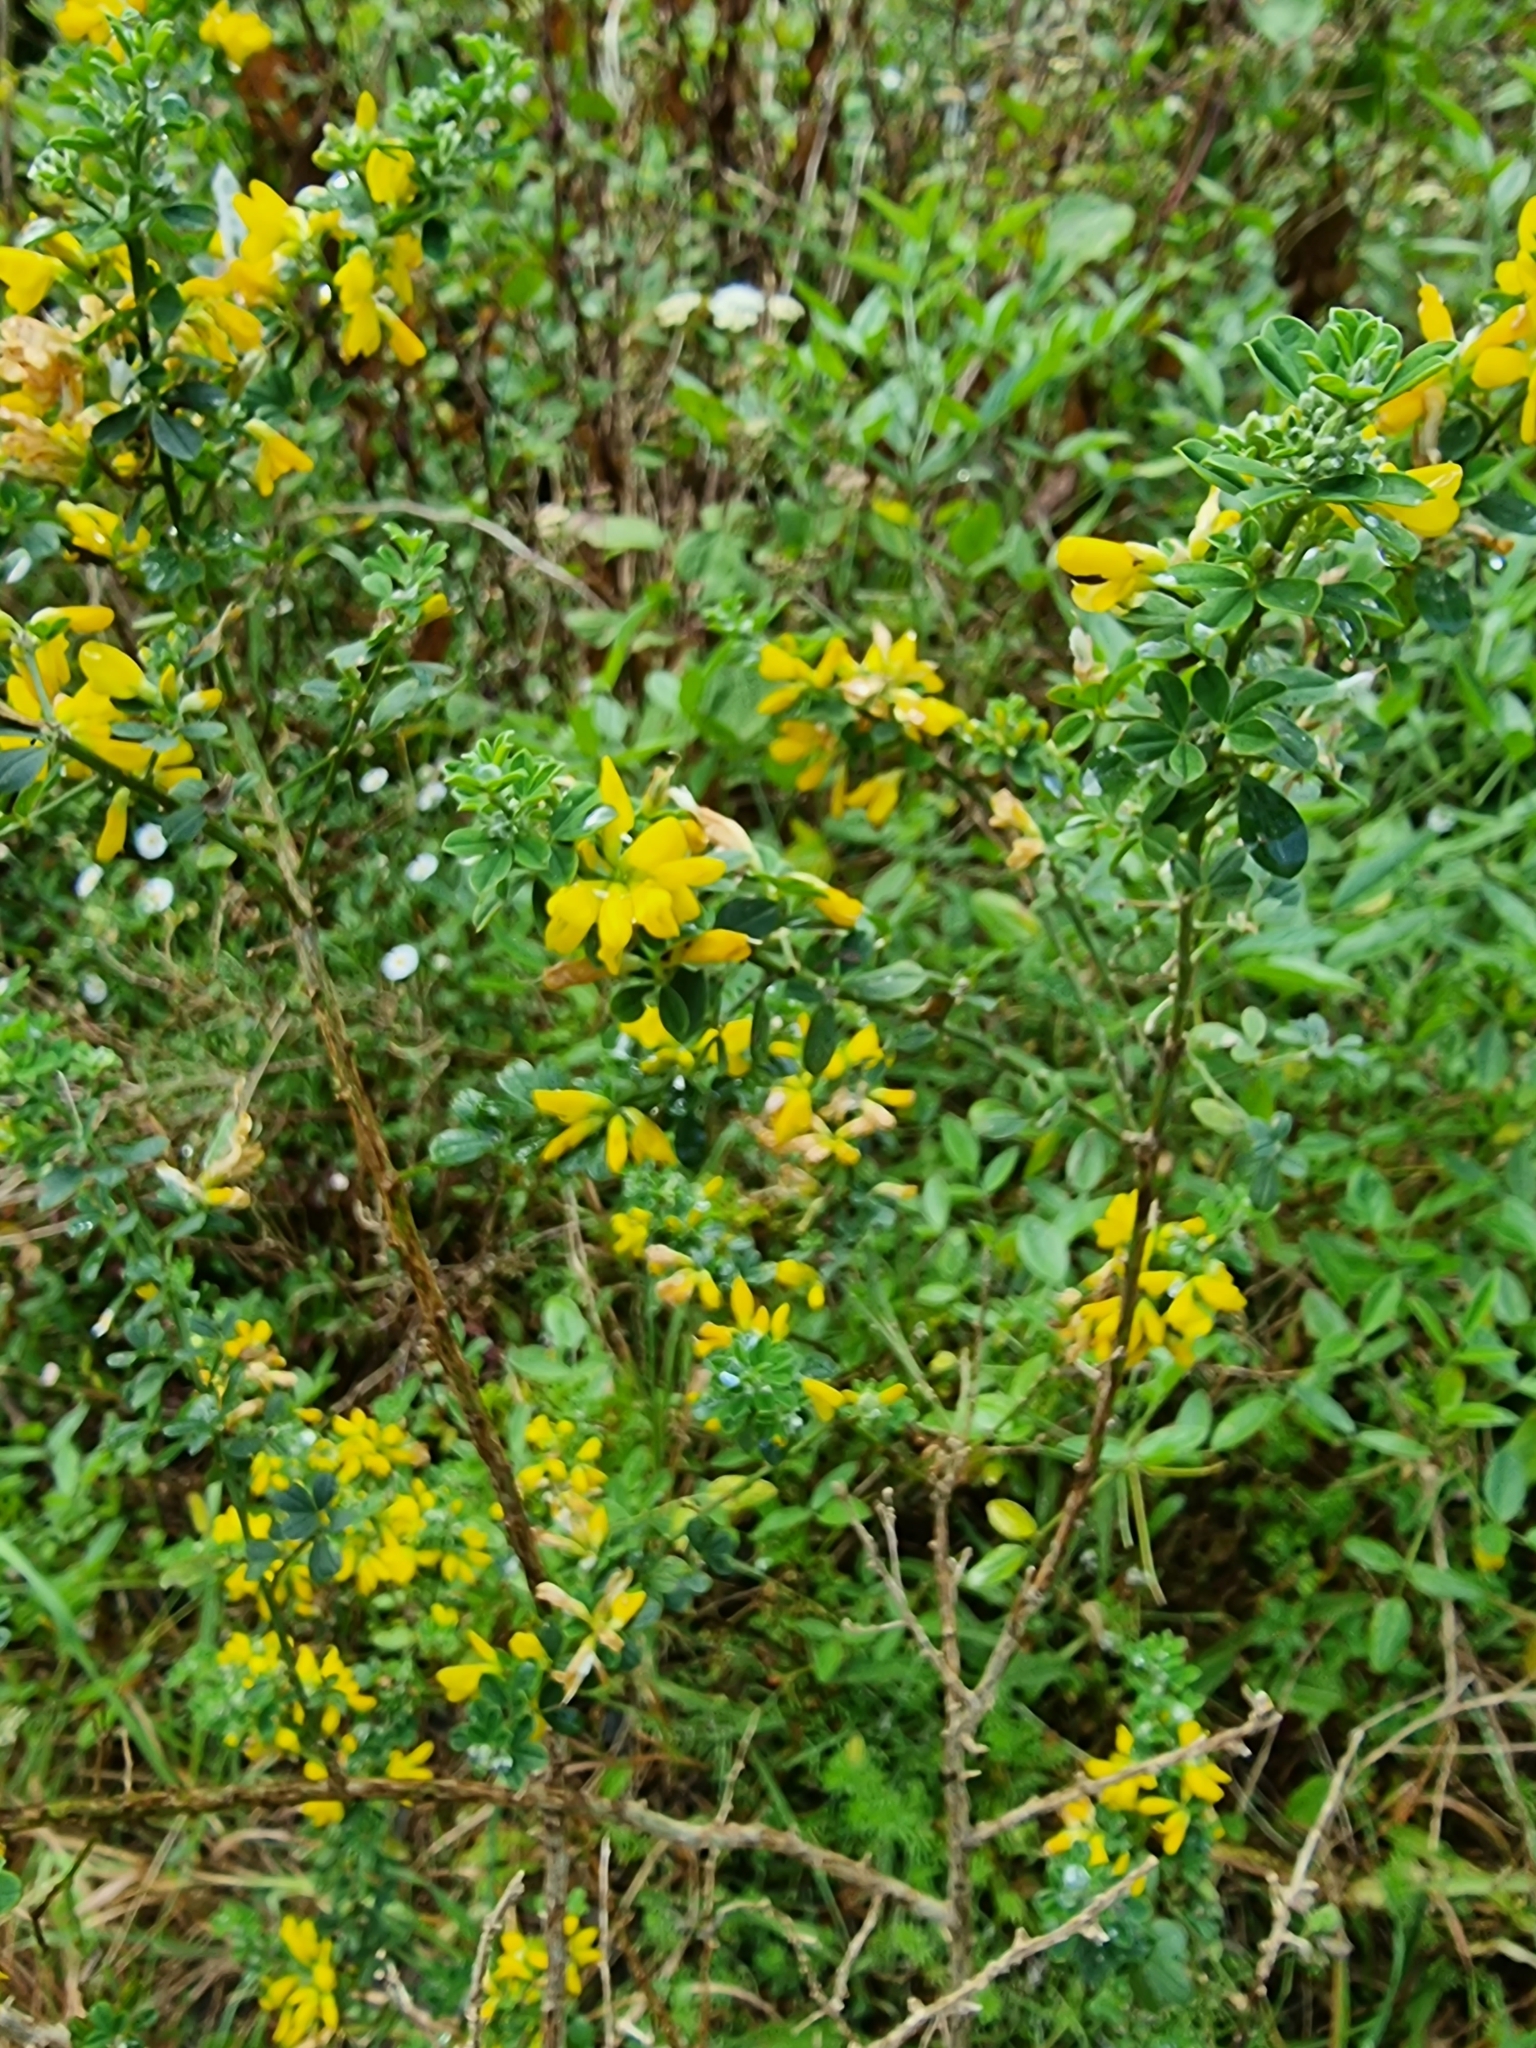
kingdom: Plantae
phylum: Tracheophyta
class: Magnoliopsida
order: Fabales
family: Fabaceae
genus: Genista
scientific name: Genista maderensis
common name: Madeira dyer's greenweed
